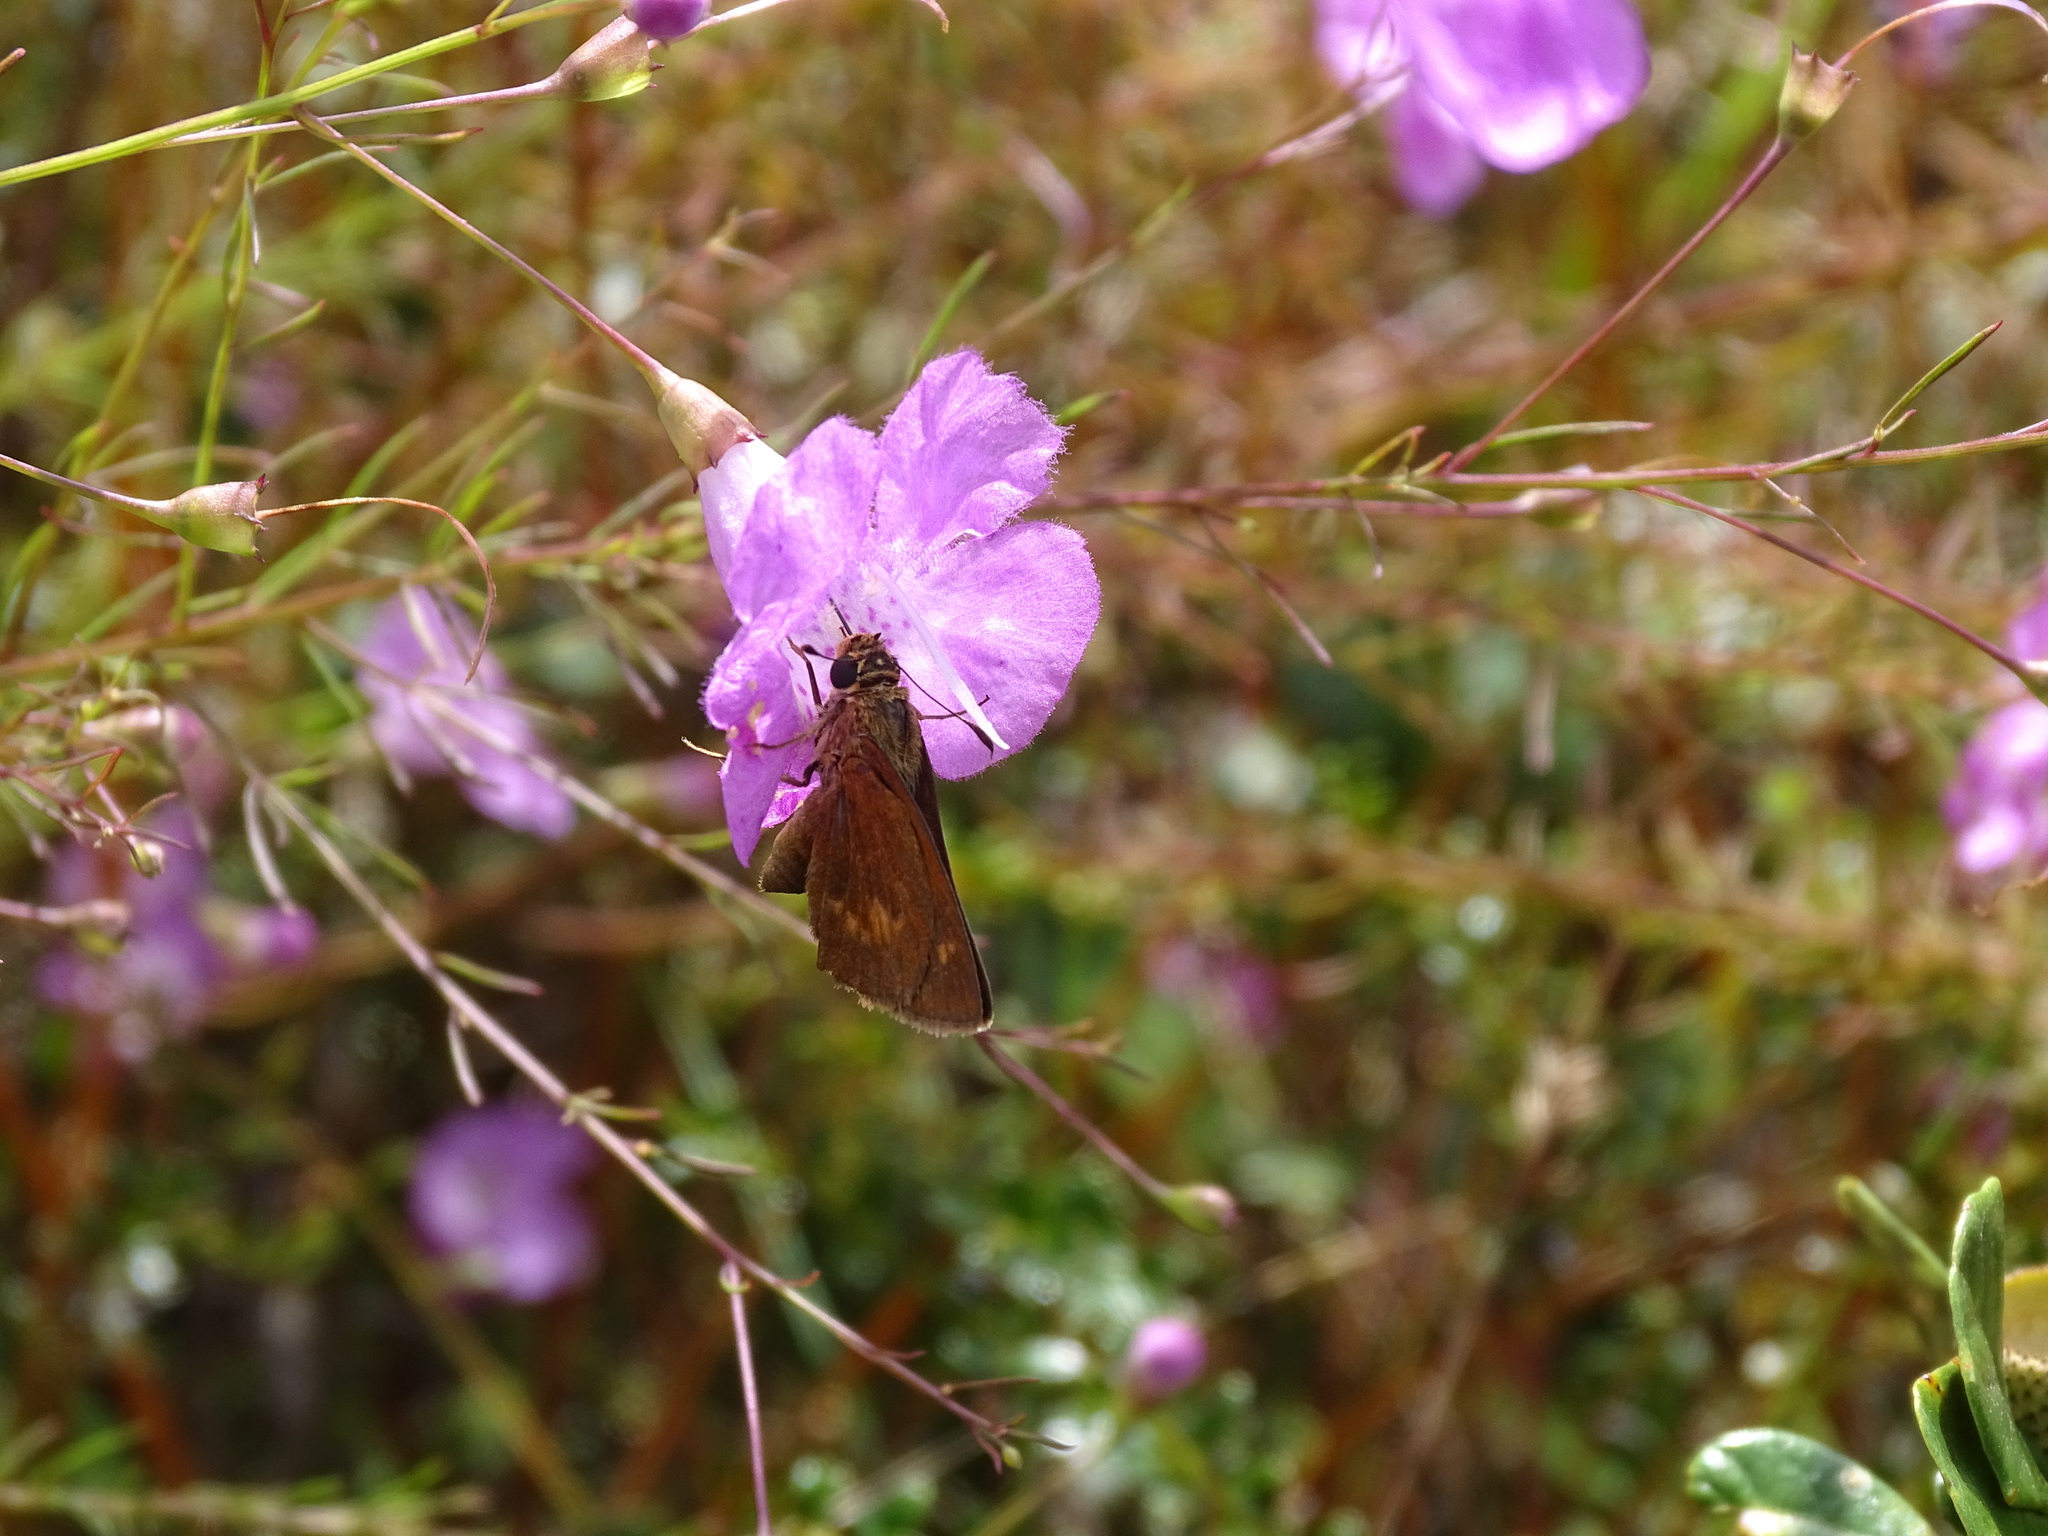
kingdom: Animalia
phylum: Arthropoda
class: Insecta
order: Lepidoptera
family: Hesperiidae
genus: Polites
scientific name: Polites otho
